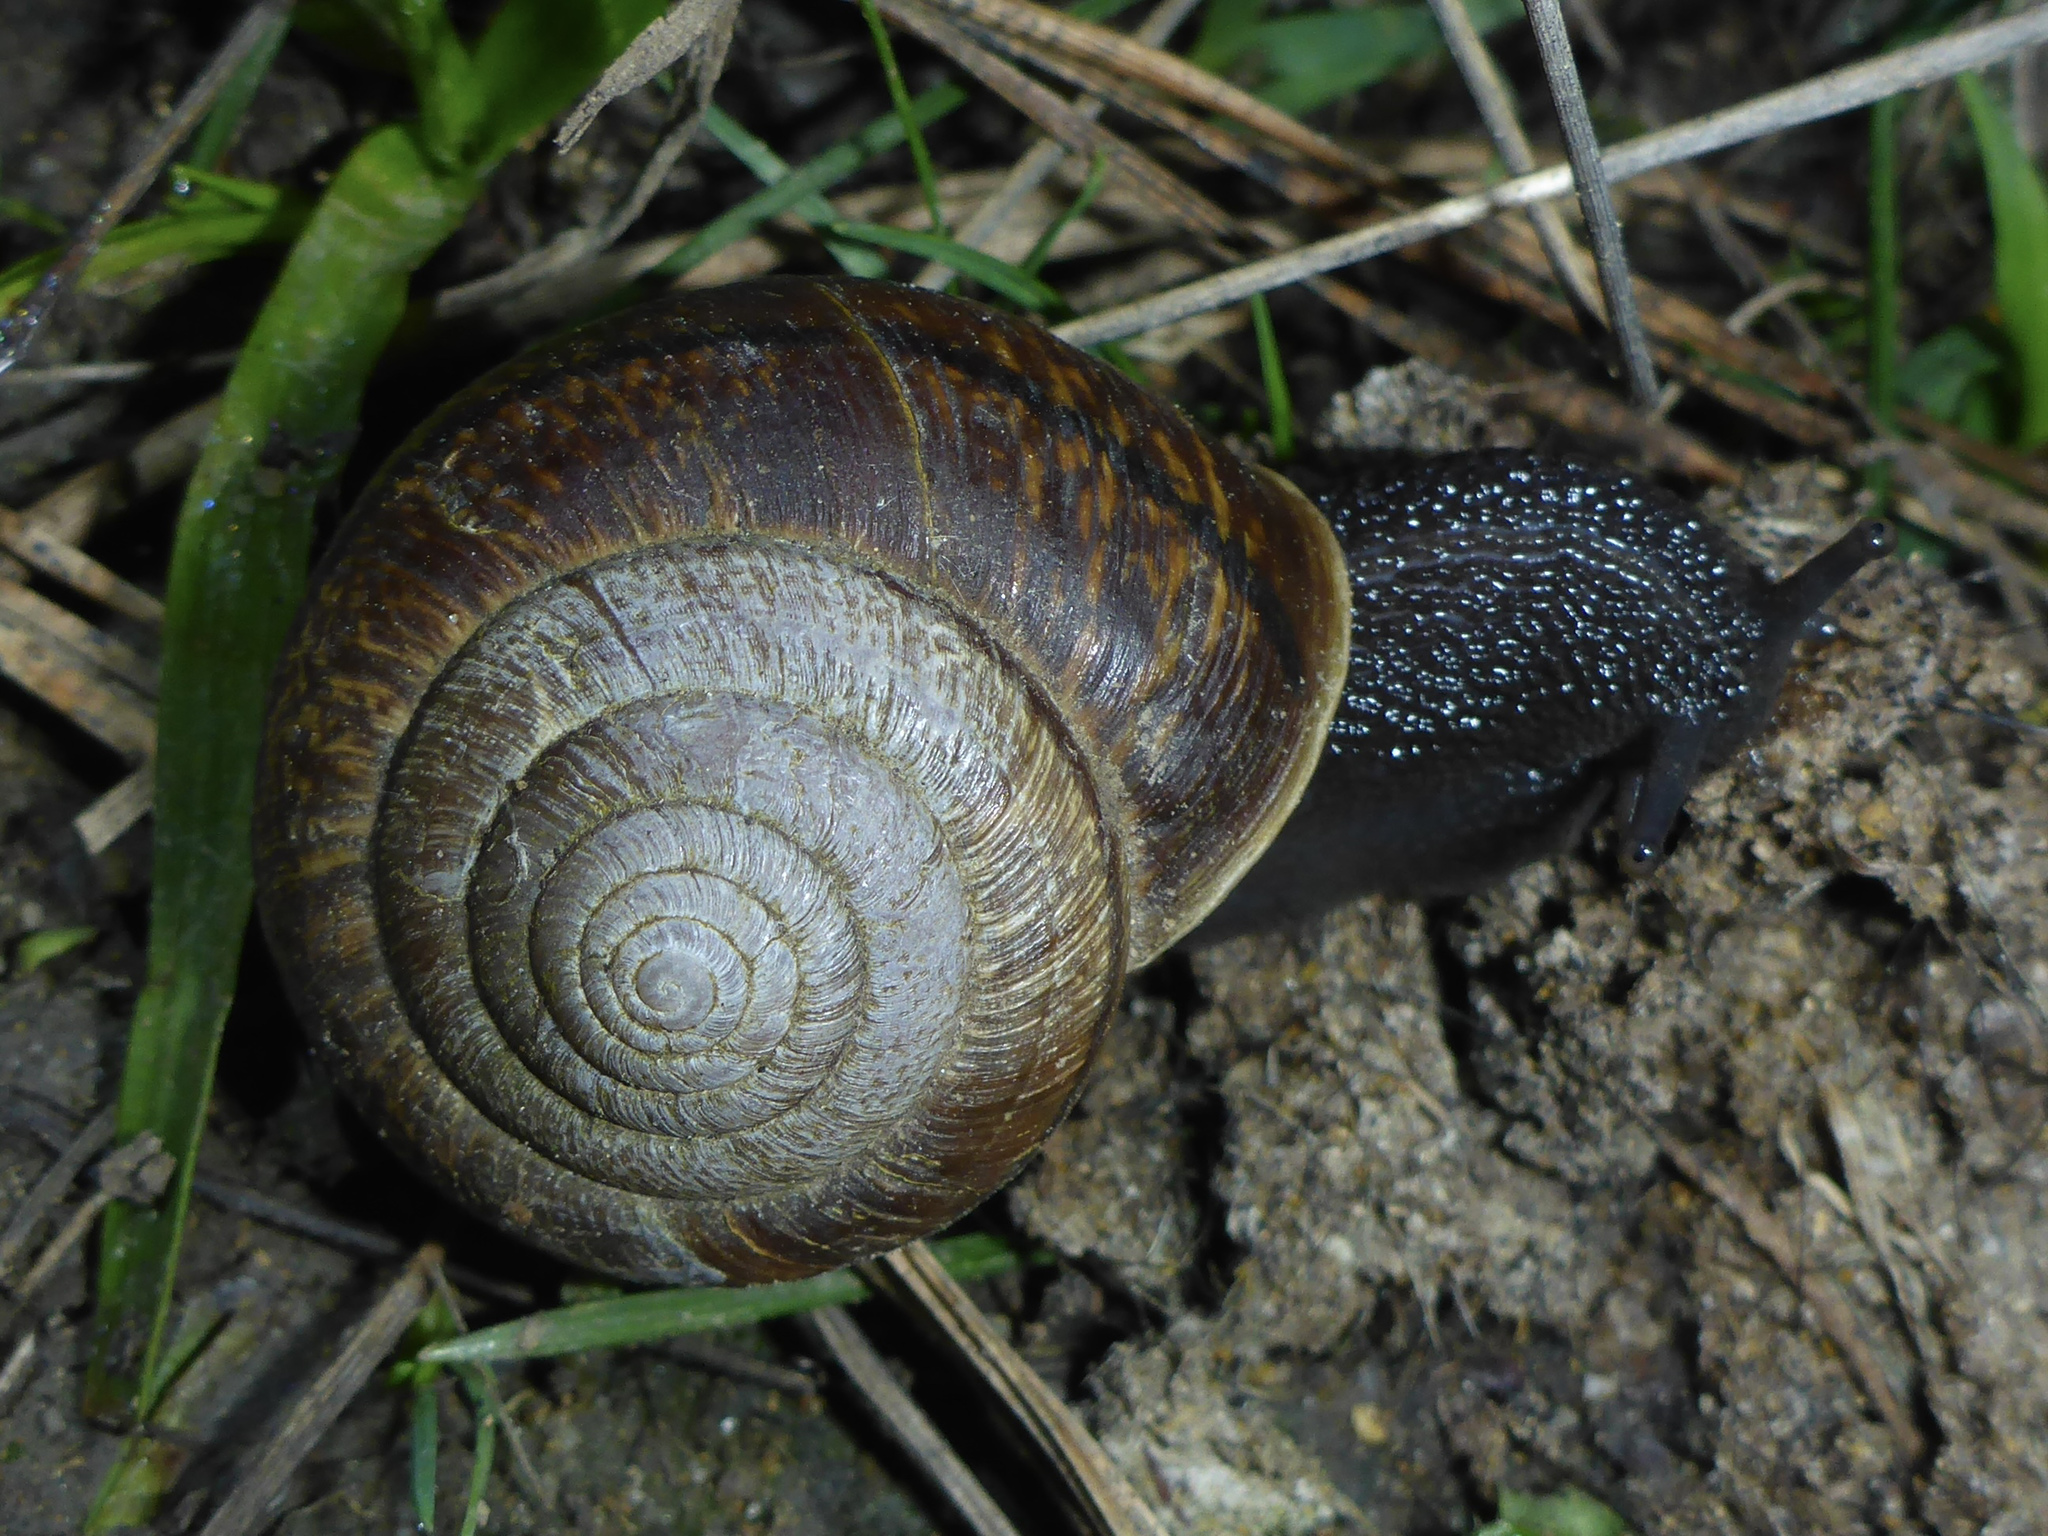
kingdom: Animalia
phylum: Mollusca
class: Gastropoda
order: Stylommatophora
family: Xanthonychidae
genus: Helminthoglypta
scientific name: Helminthoglypta arrosa
